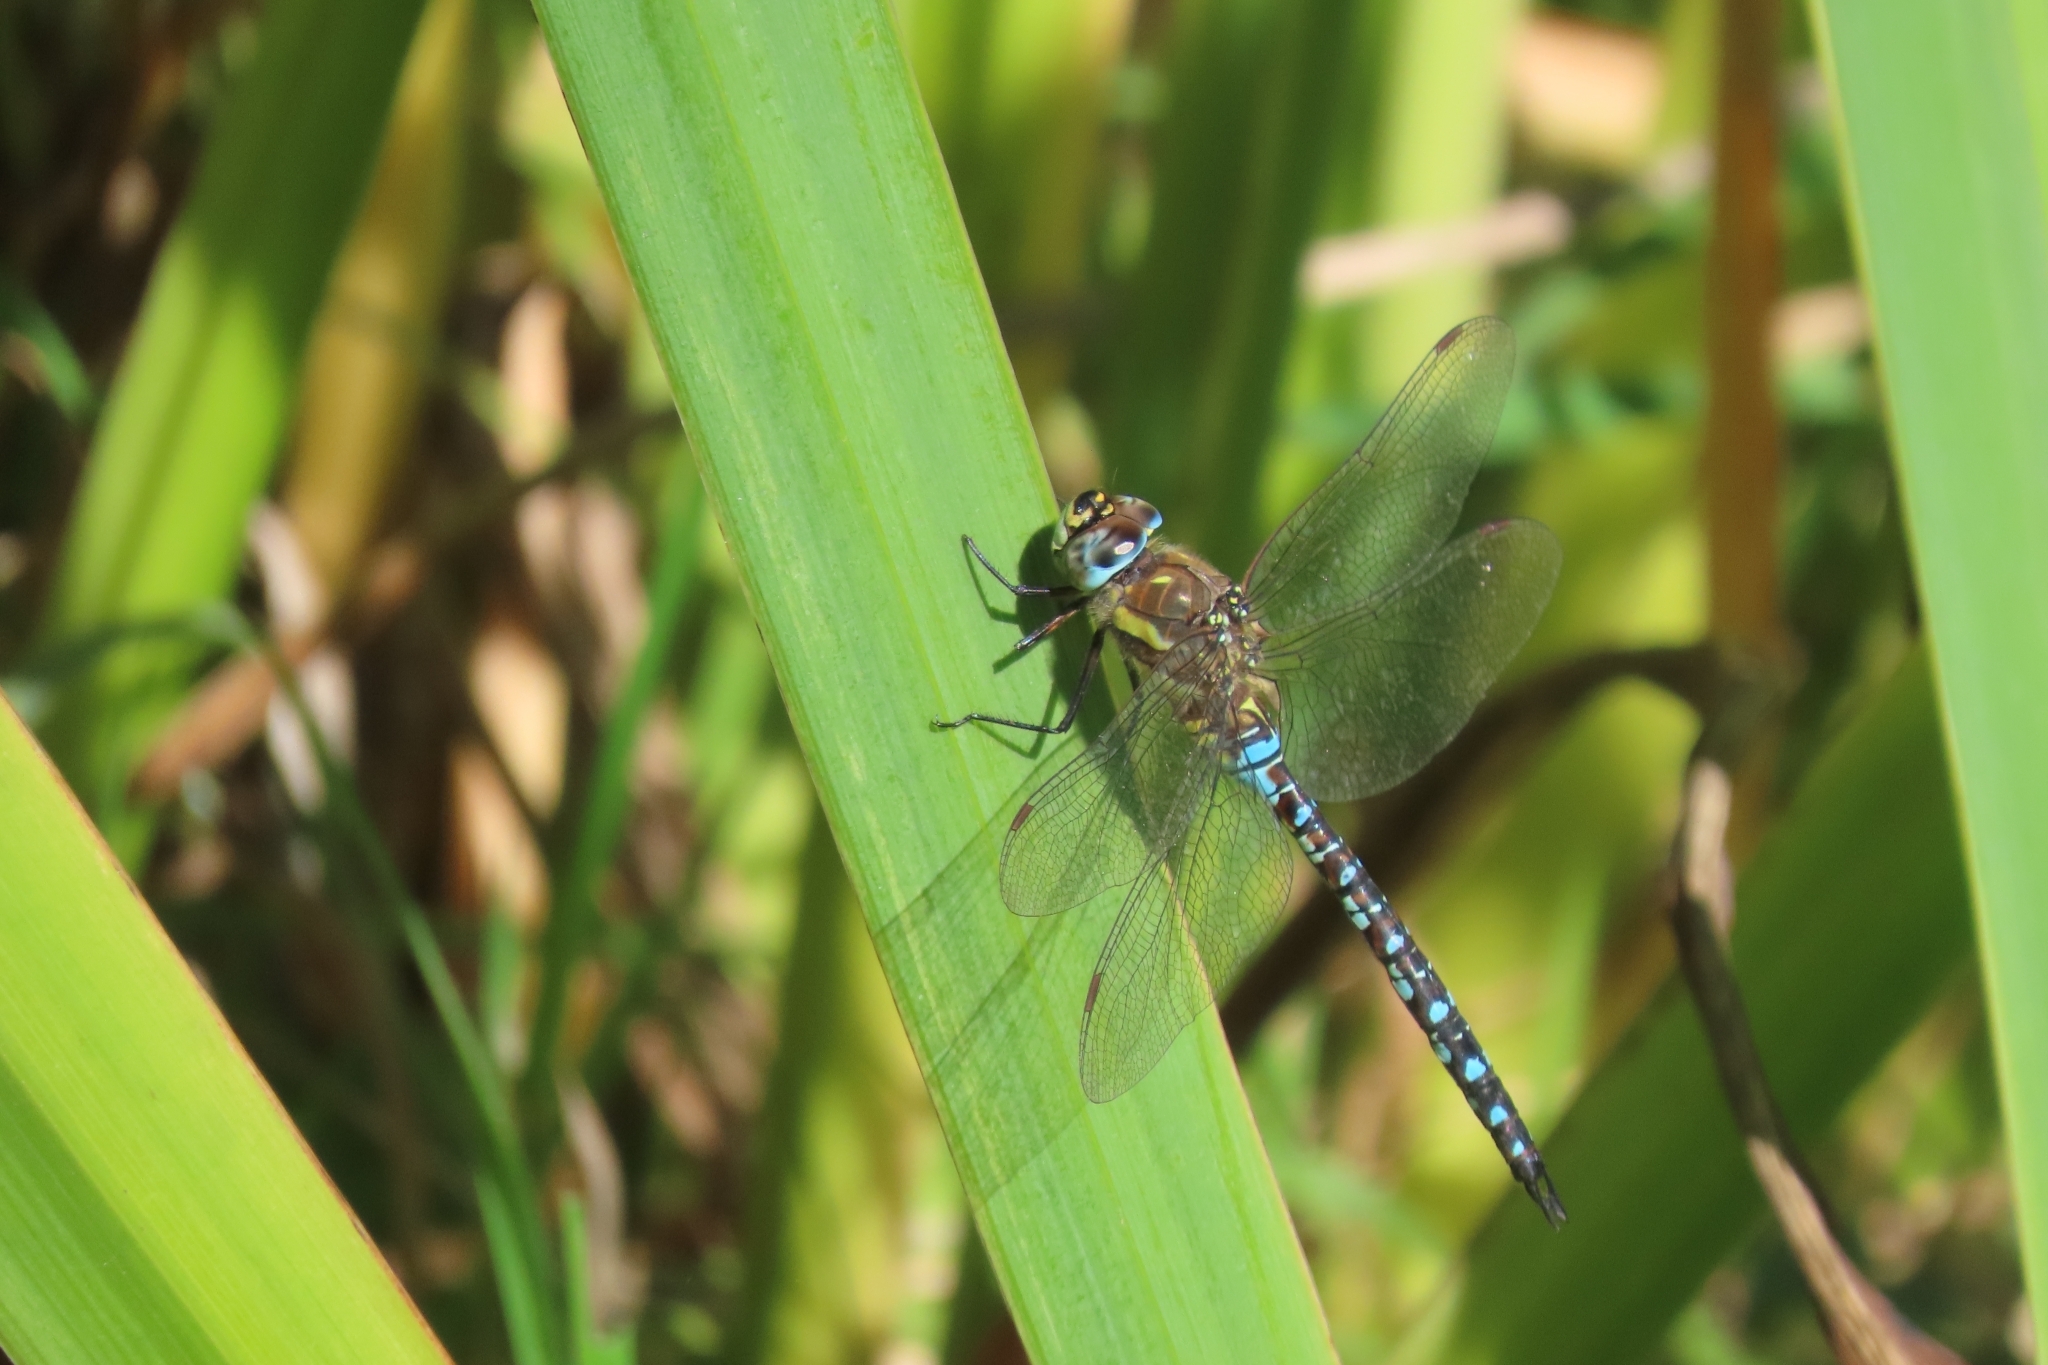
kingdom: Animalia
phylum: Arthropoda
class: Insecta
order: Odonata
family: Aeshnidae
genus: Aeshna
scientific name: Aeshna mixta
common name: Migrant hawker
